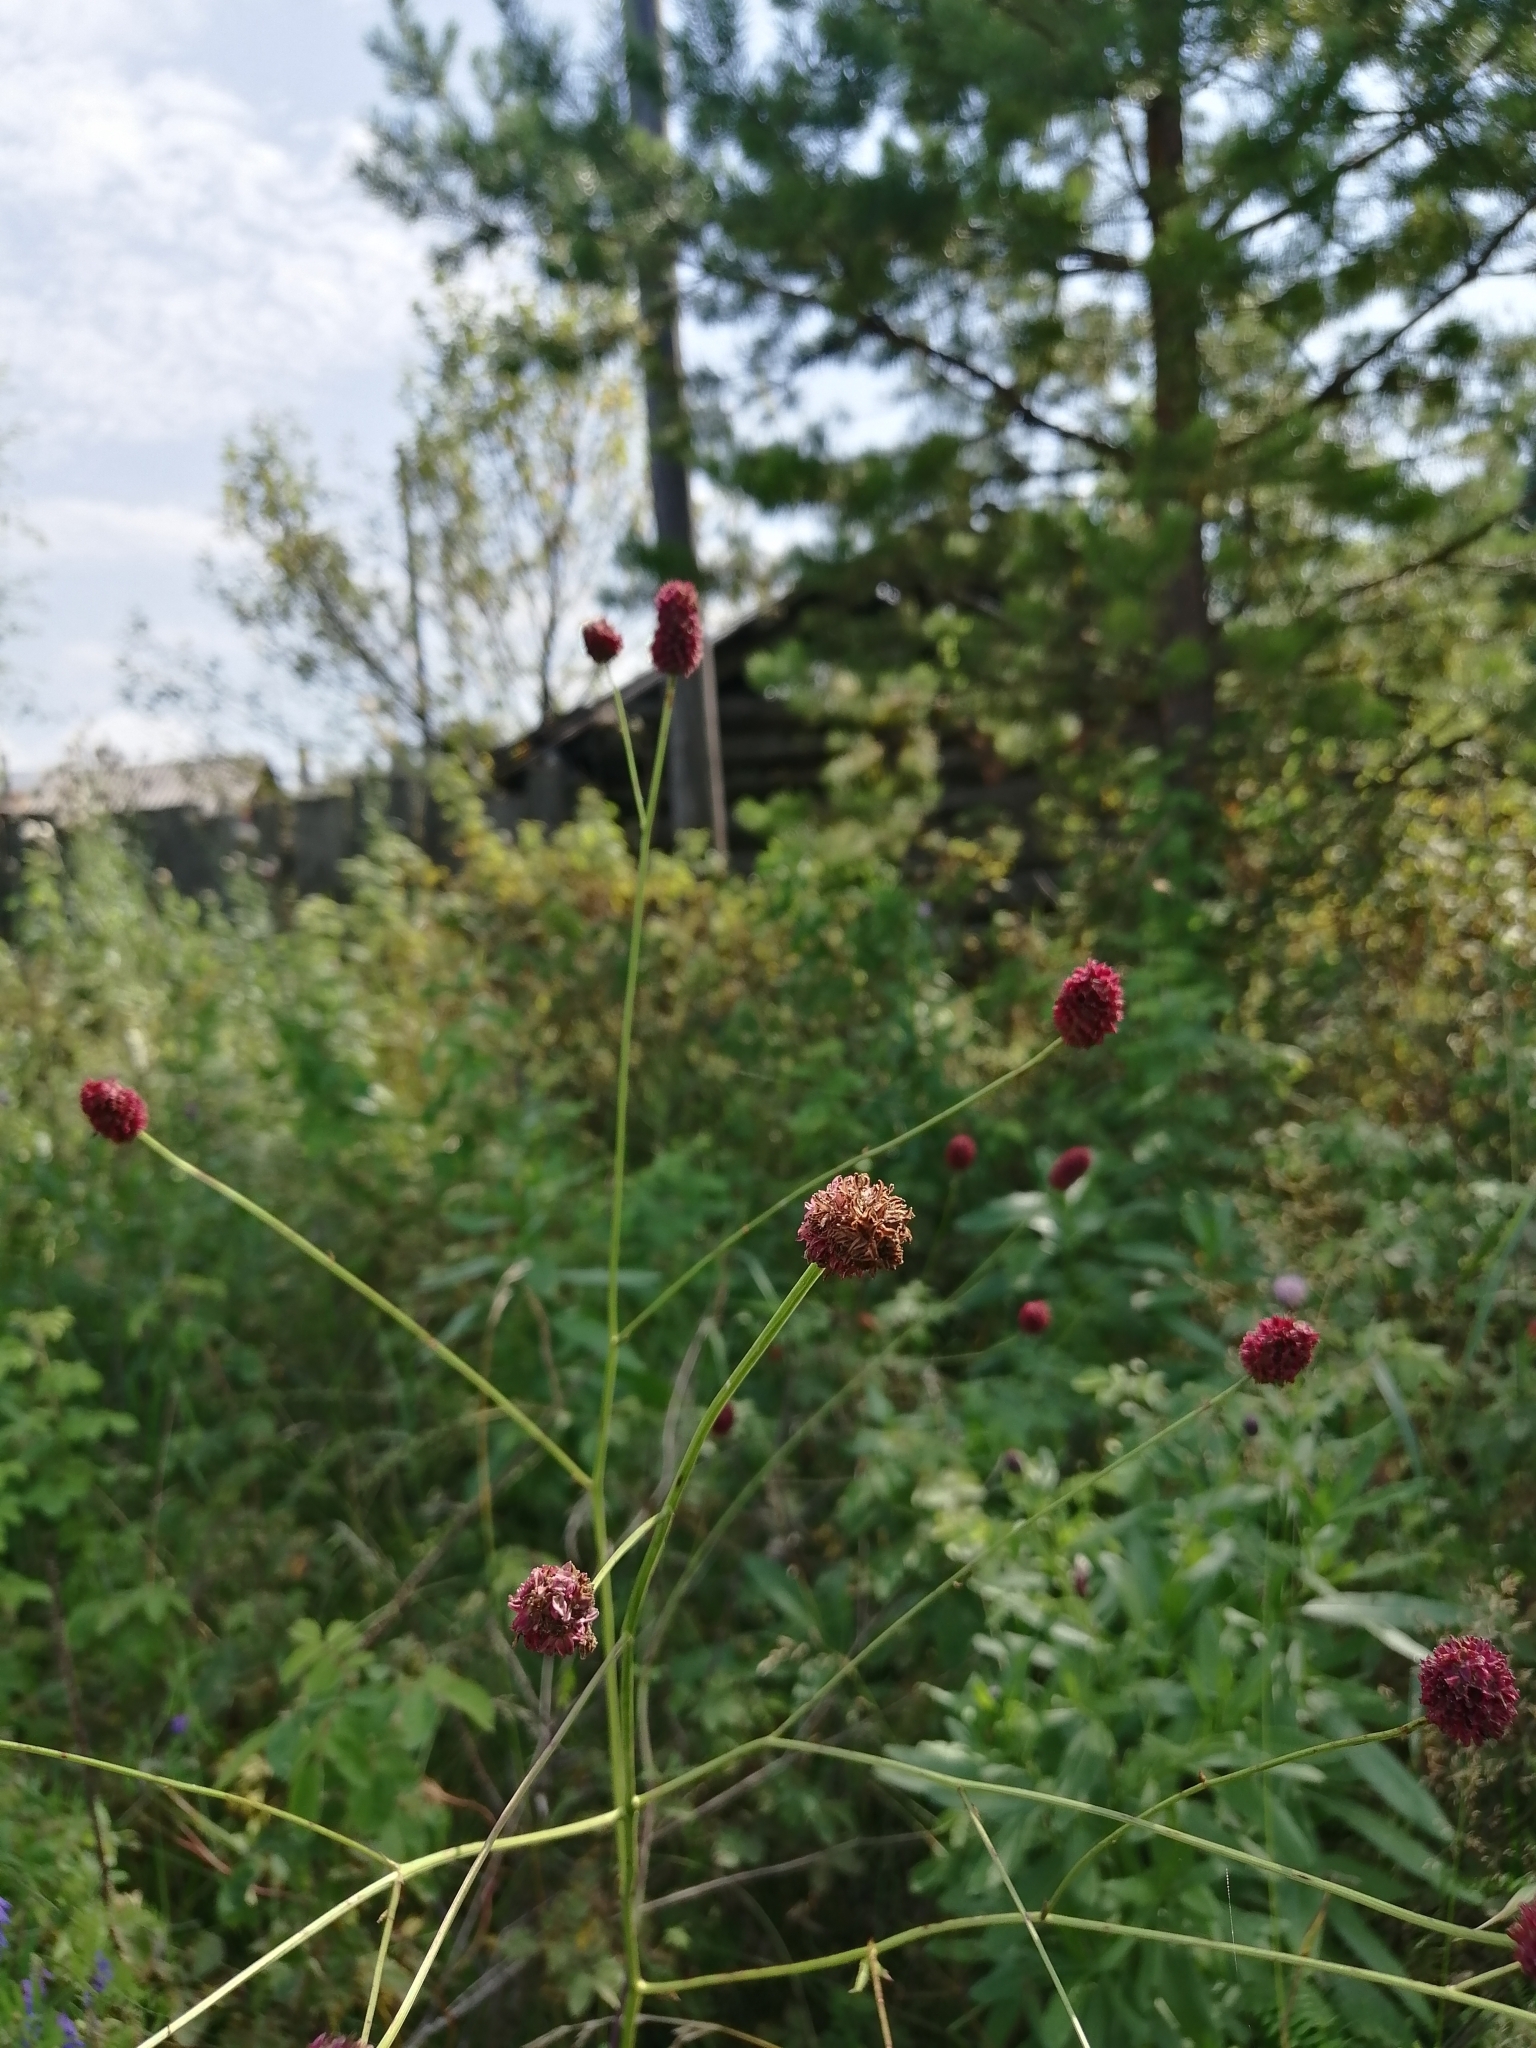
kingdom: Plantae
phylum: Tracheophyta
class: Magnoliopsida
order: Rosales
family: Rosaceae
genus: Sanguisorba
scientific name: Sanguisorba officinalis
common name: Great burnet
